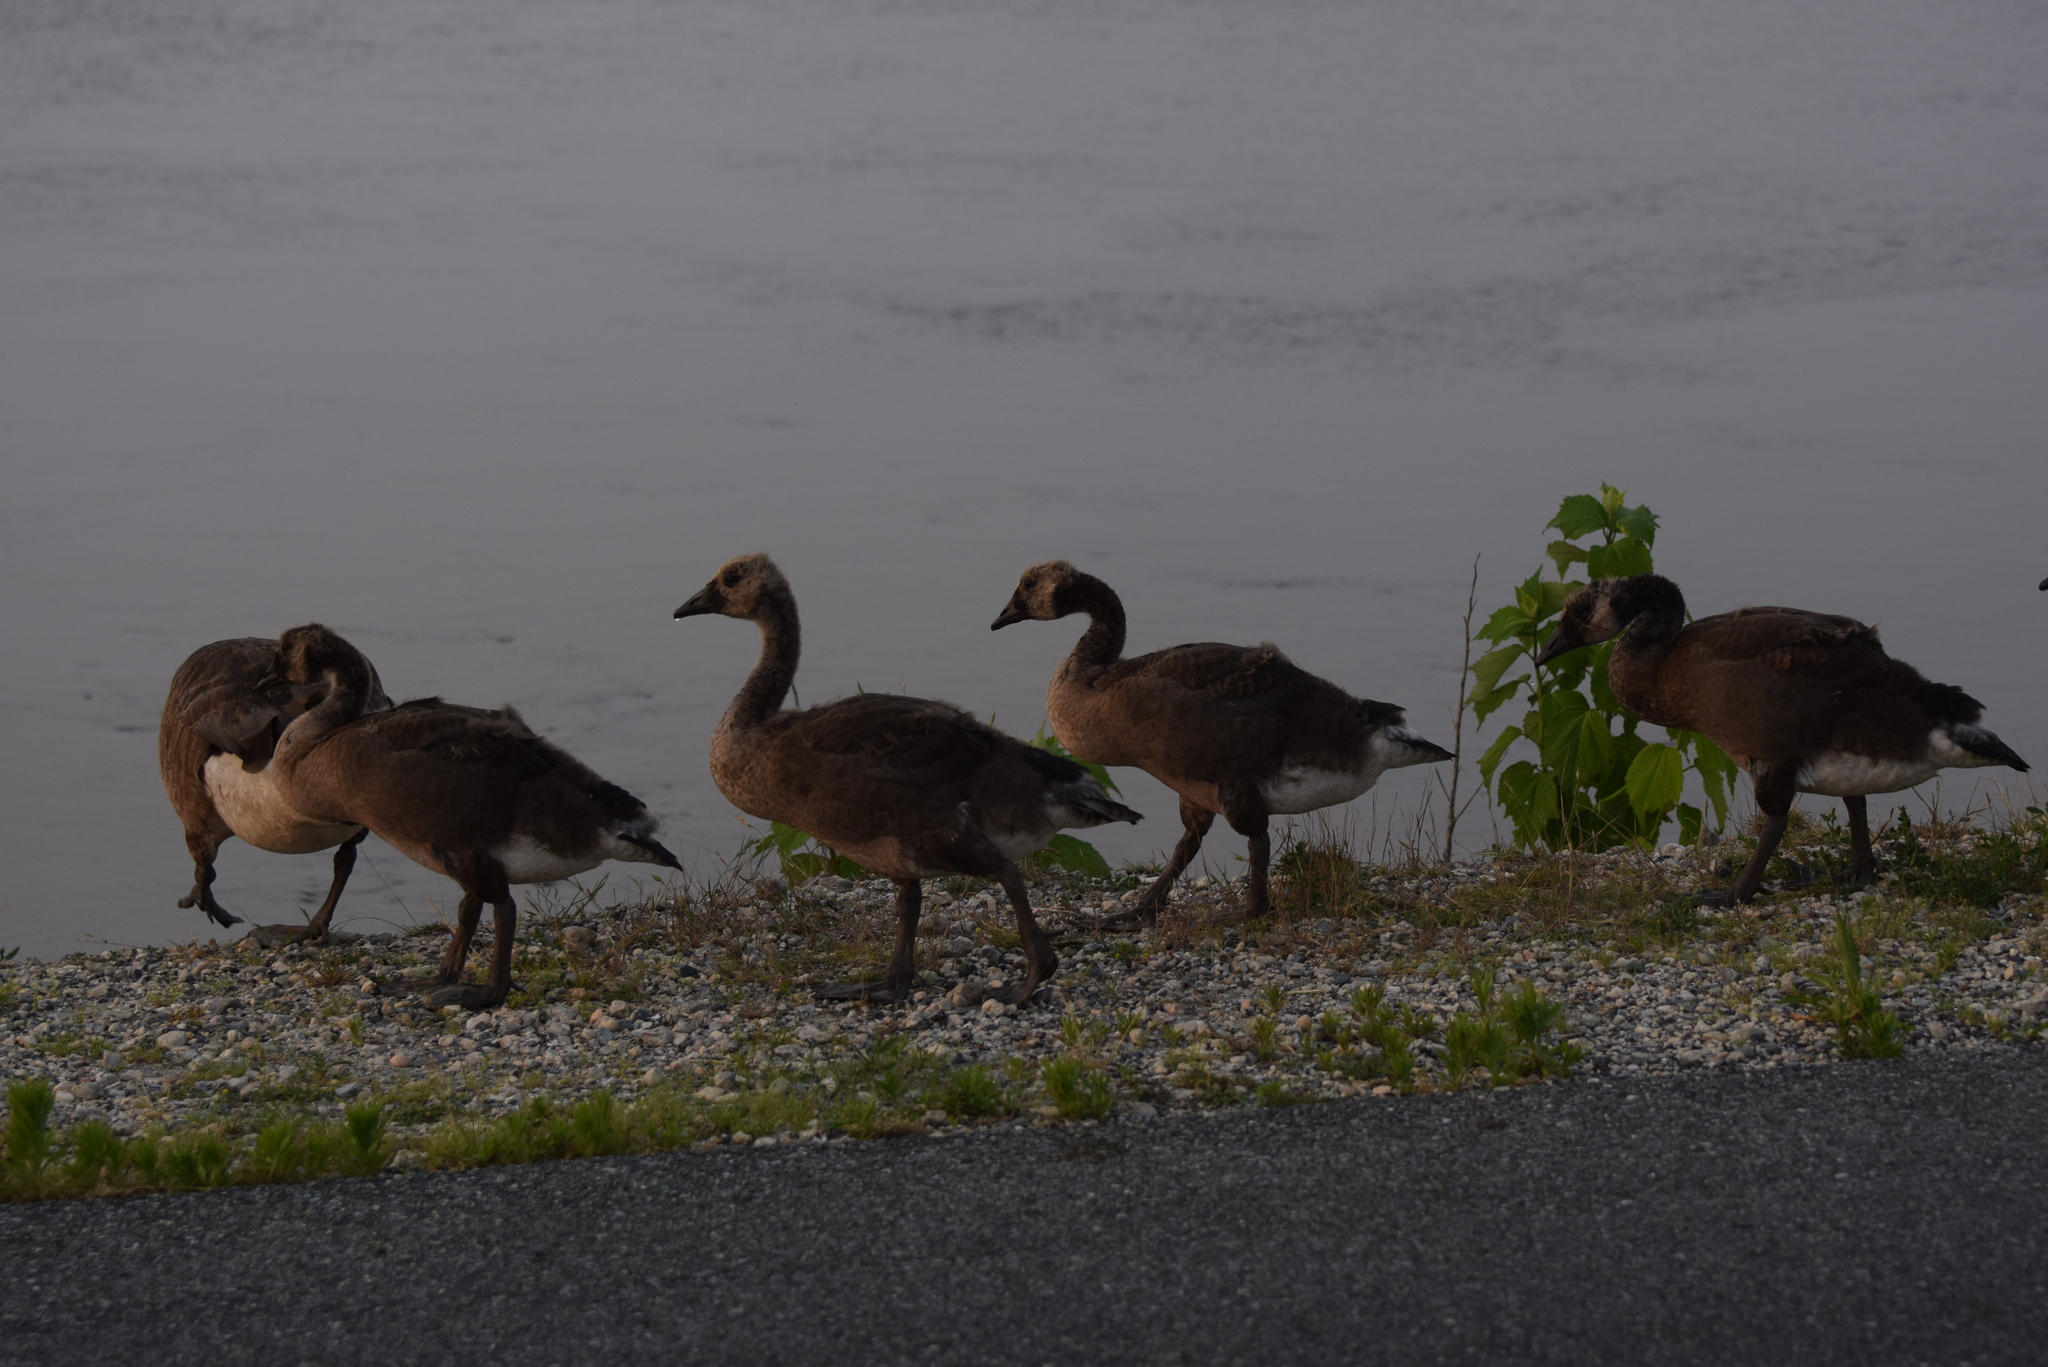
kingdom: Animalia
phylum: Chordata
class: Aves
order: Anseriformes
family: Anatidae
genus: Branta
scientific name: Branta canadensis
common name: Canada goose
